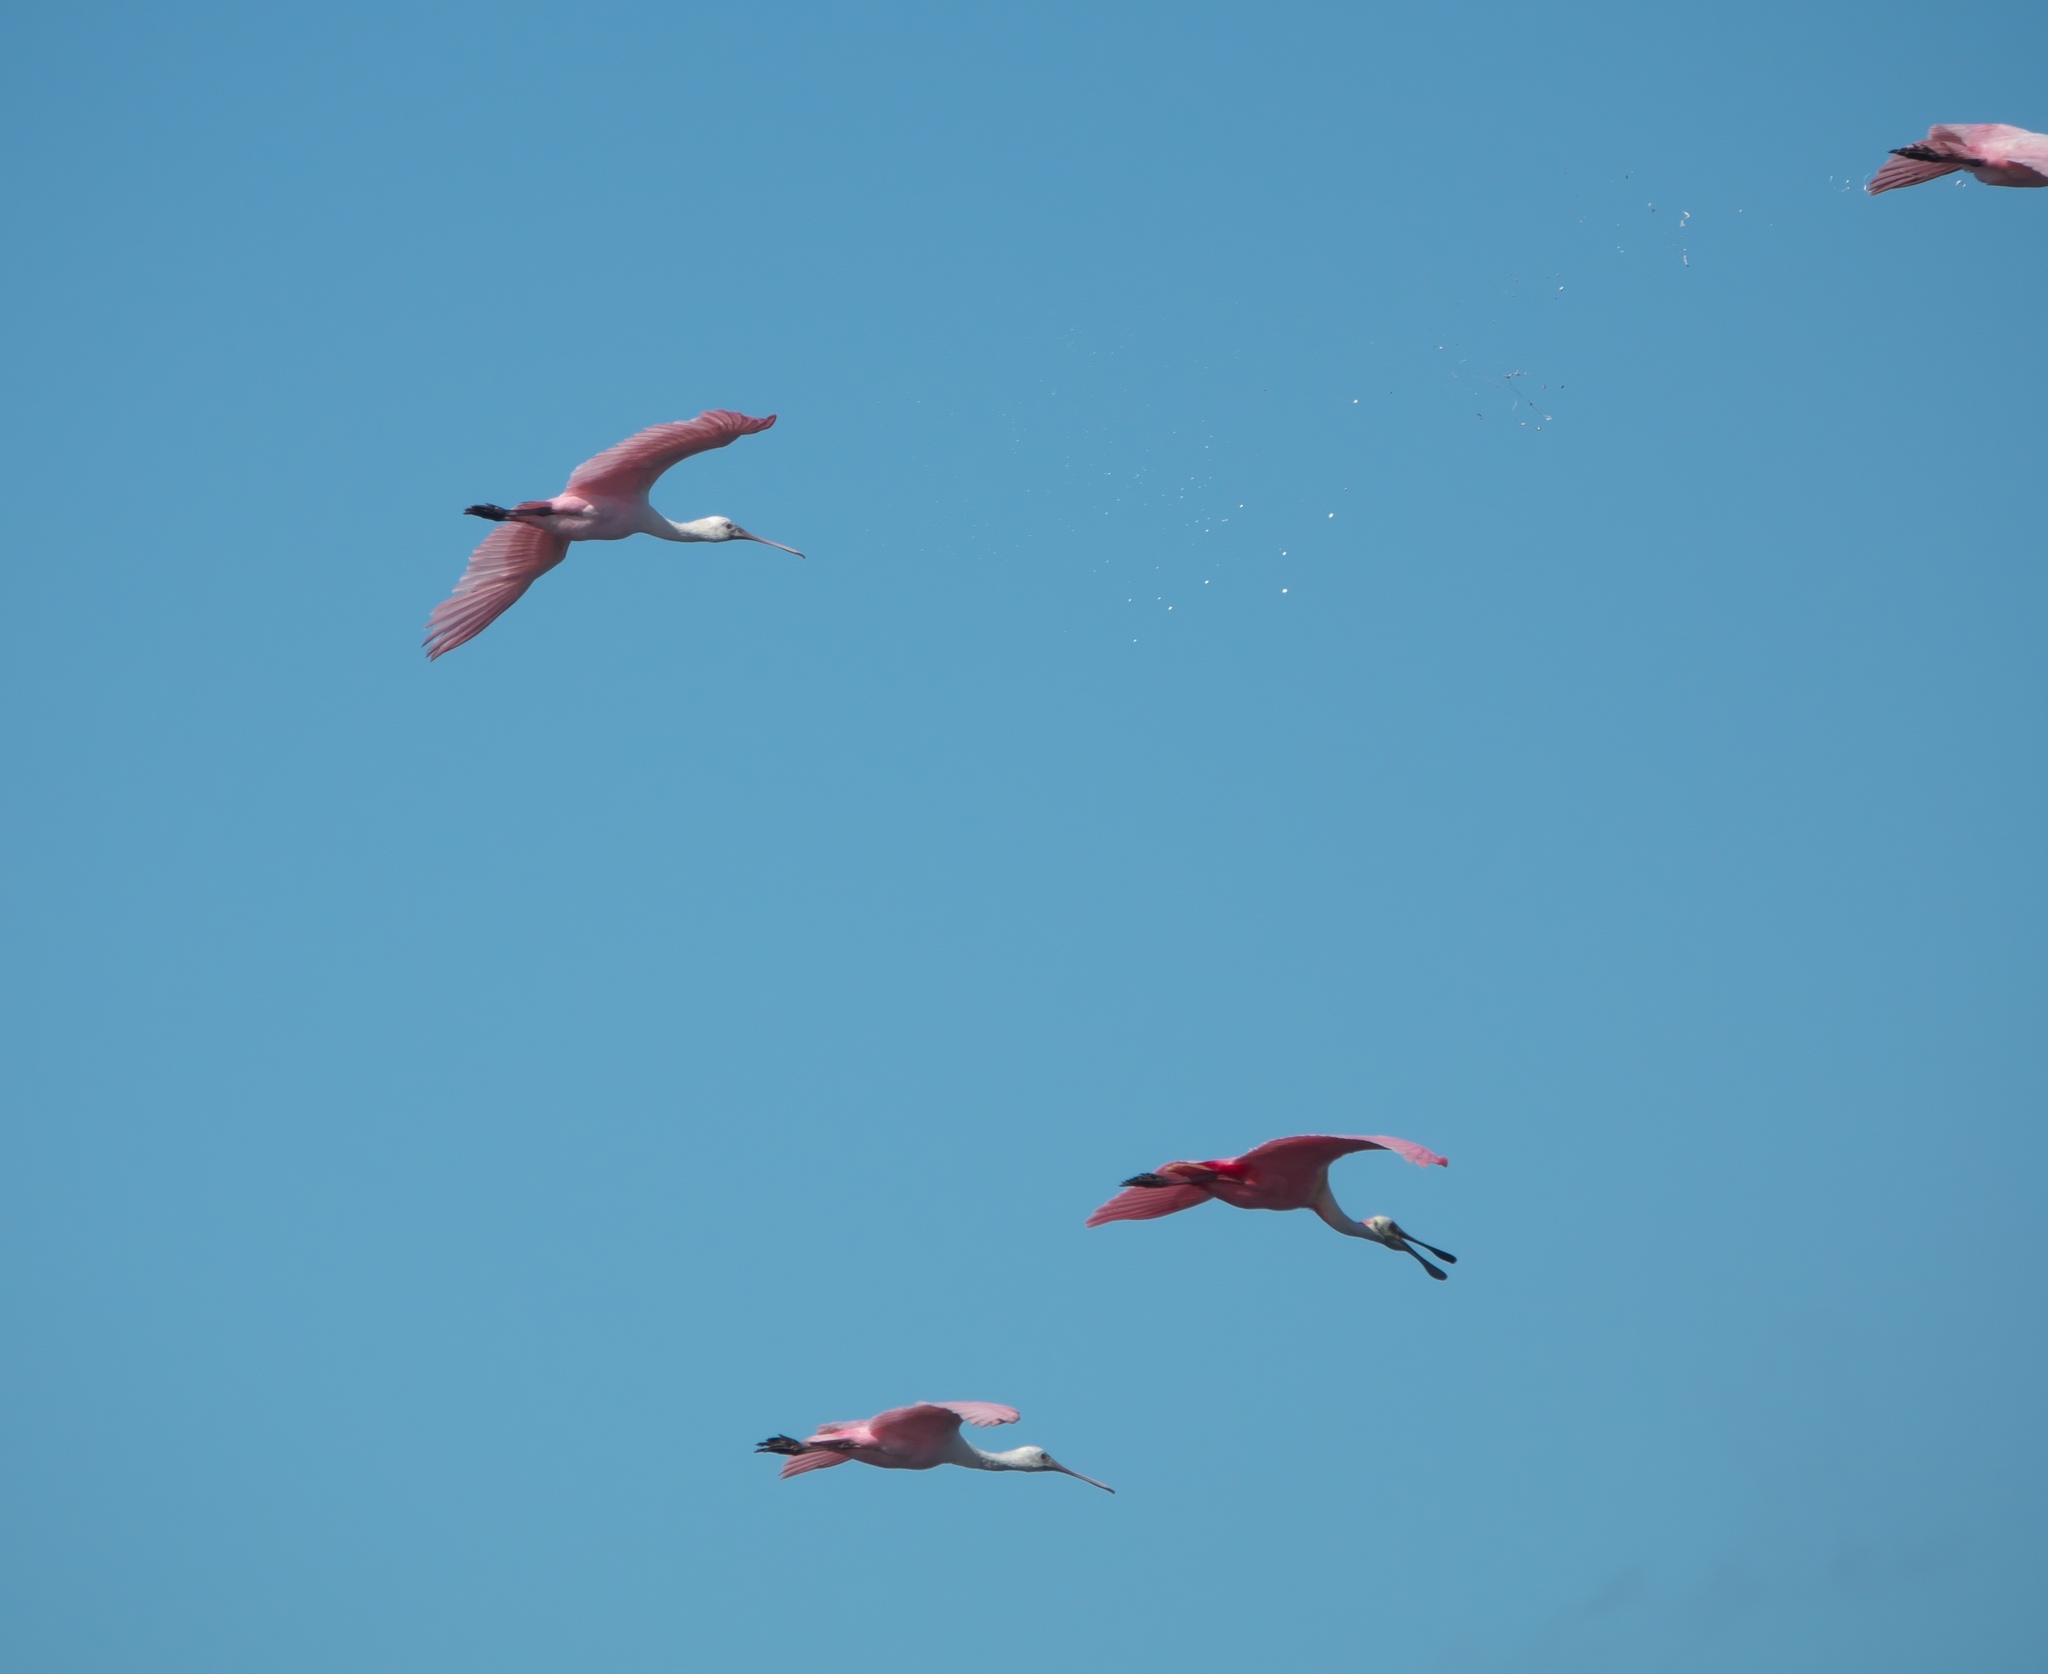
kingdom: Animalia
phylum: Chordata
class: Aves
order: Pelecaniformes
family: Threskiornithidae
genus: Platalea
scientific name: Platalea ajaja
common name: Roseate spoonbill
